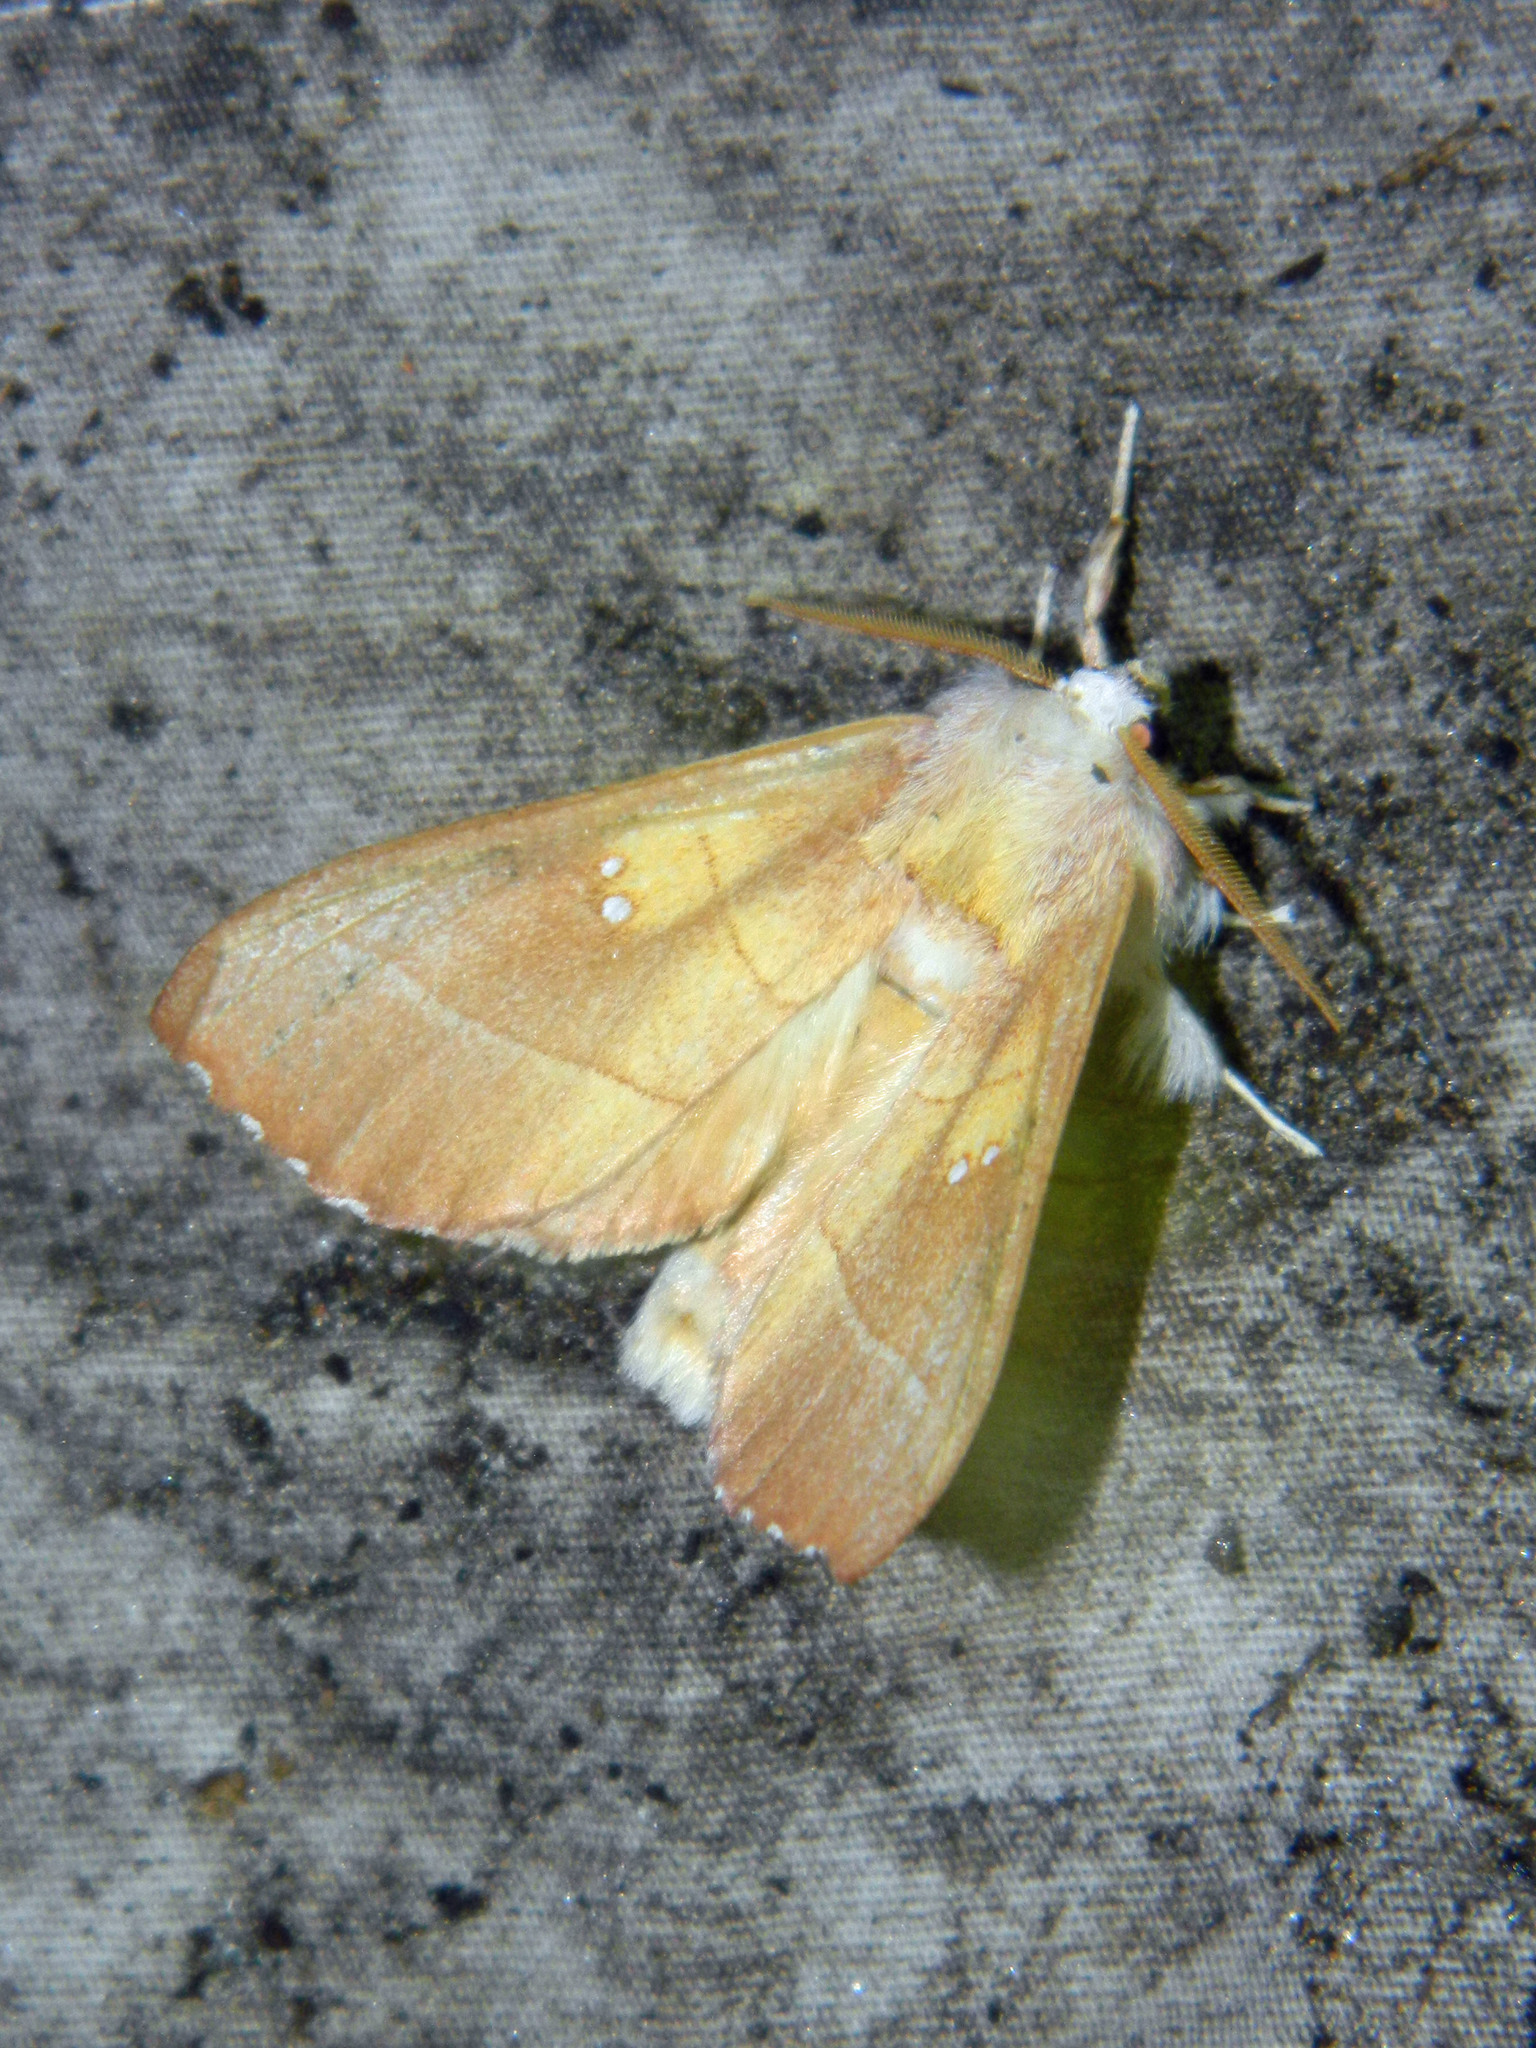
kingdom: Animalia
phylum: Arthropoda
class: Insecta
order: Lepidoptera
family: Notodontidae
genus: Nadata
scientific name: Nadata gibbosa
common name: White-dotted prominent
